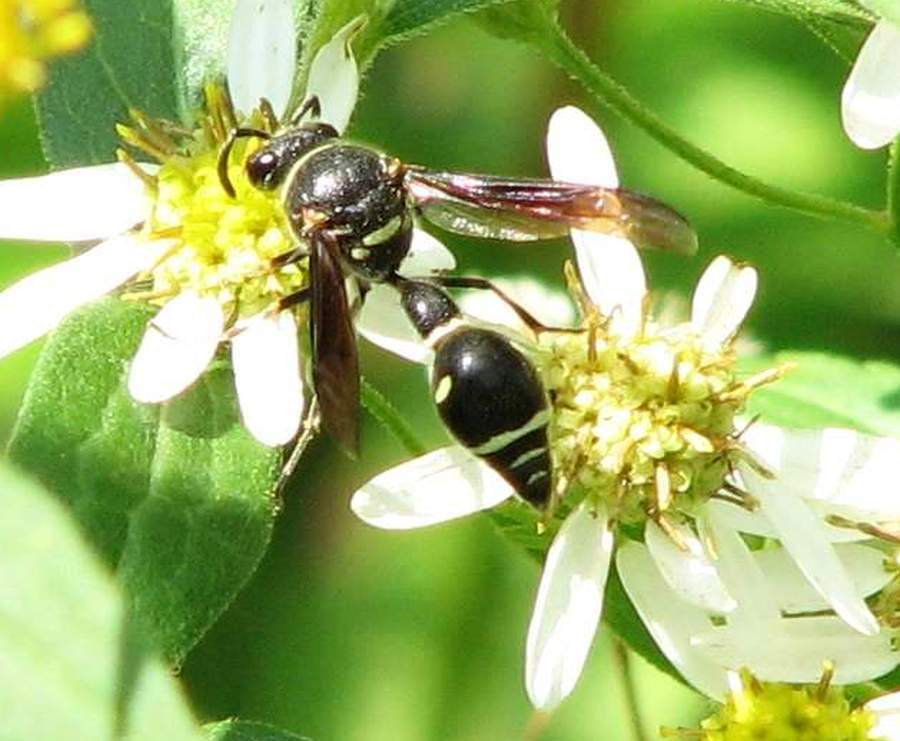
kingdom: Animalia
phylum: Arthropoda
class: Insecta
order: Hymenoptera
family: Vespidae
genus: Eumenes
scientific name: Eumenes fraternus
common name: Fraternal potter wasp
